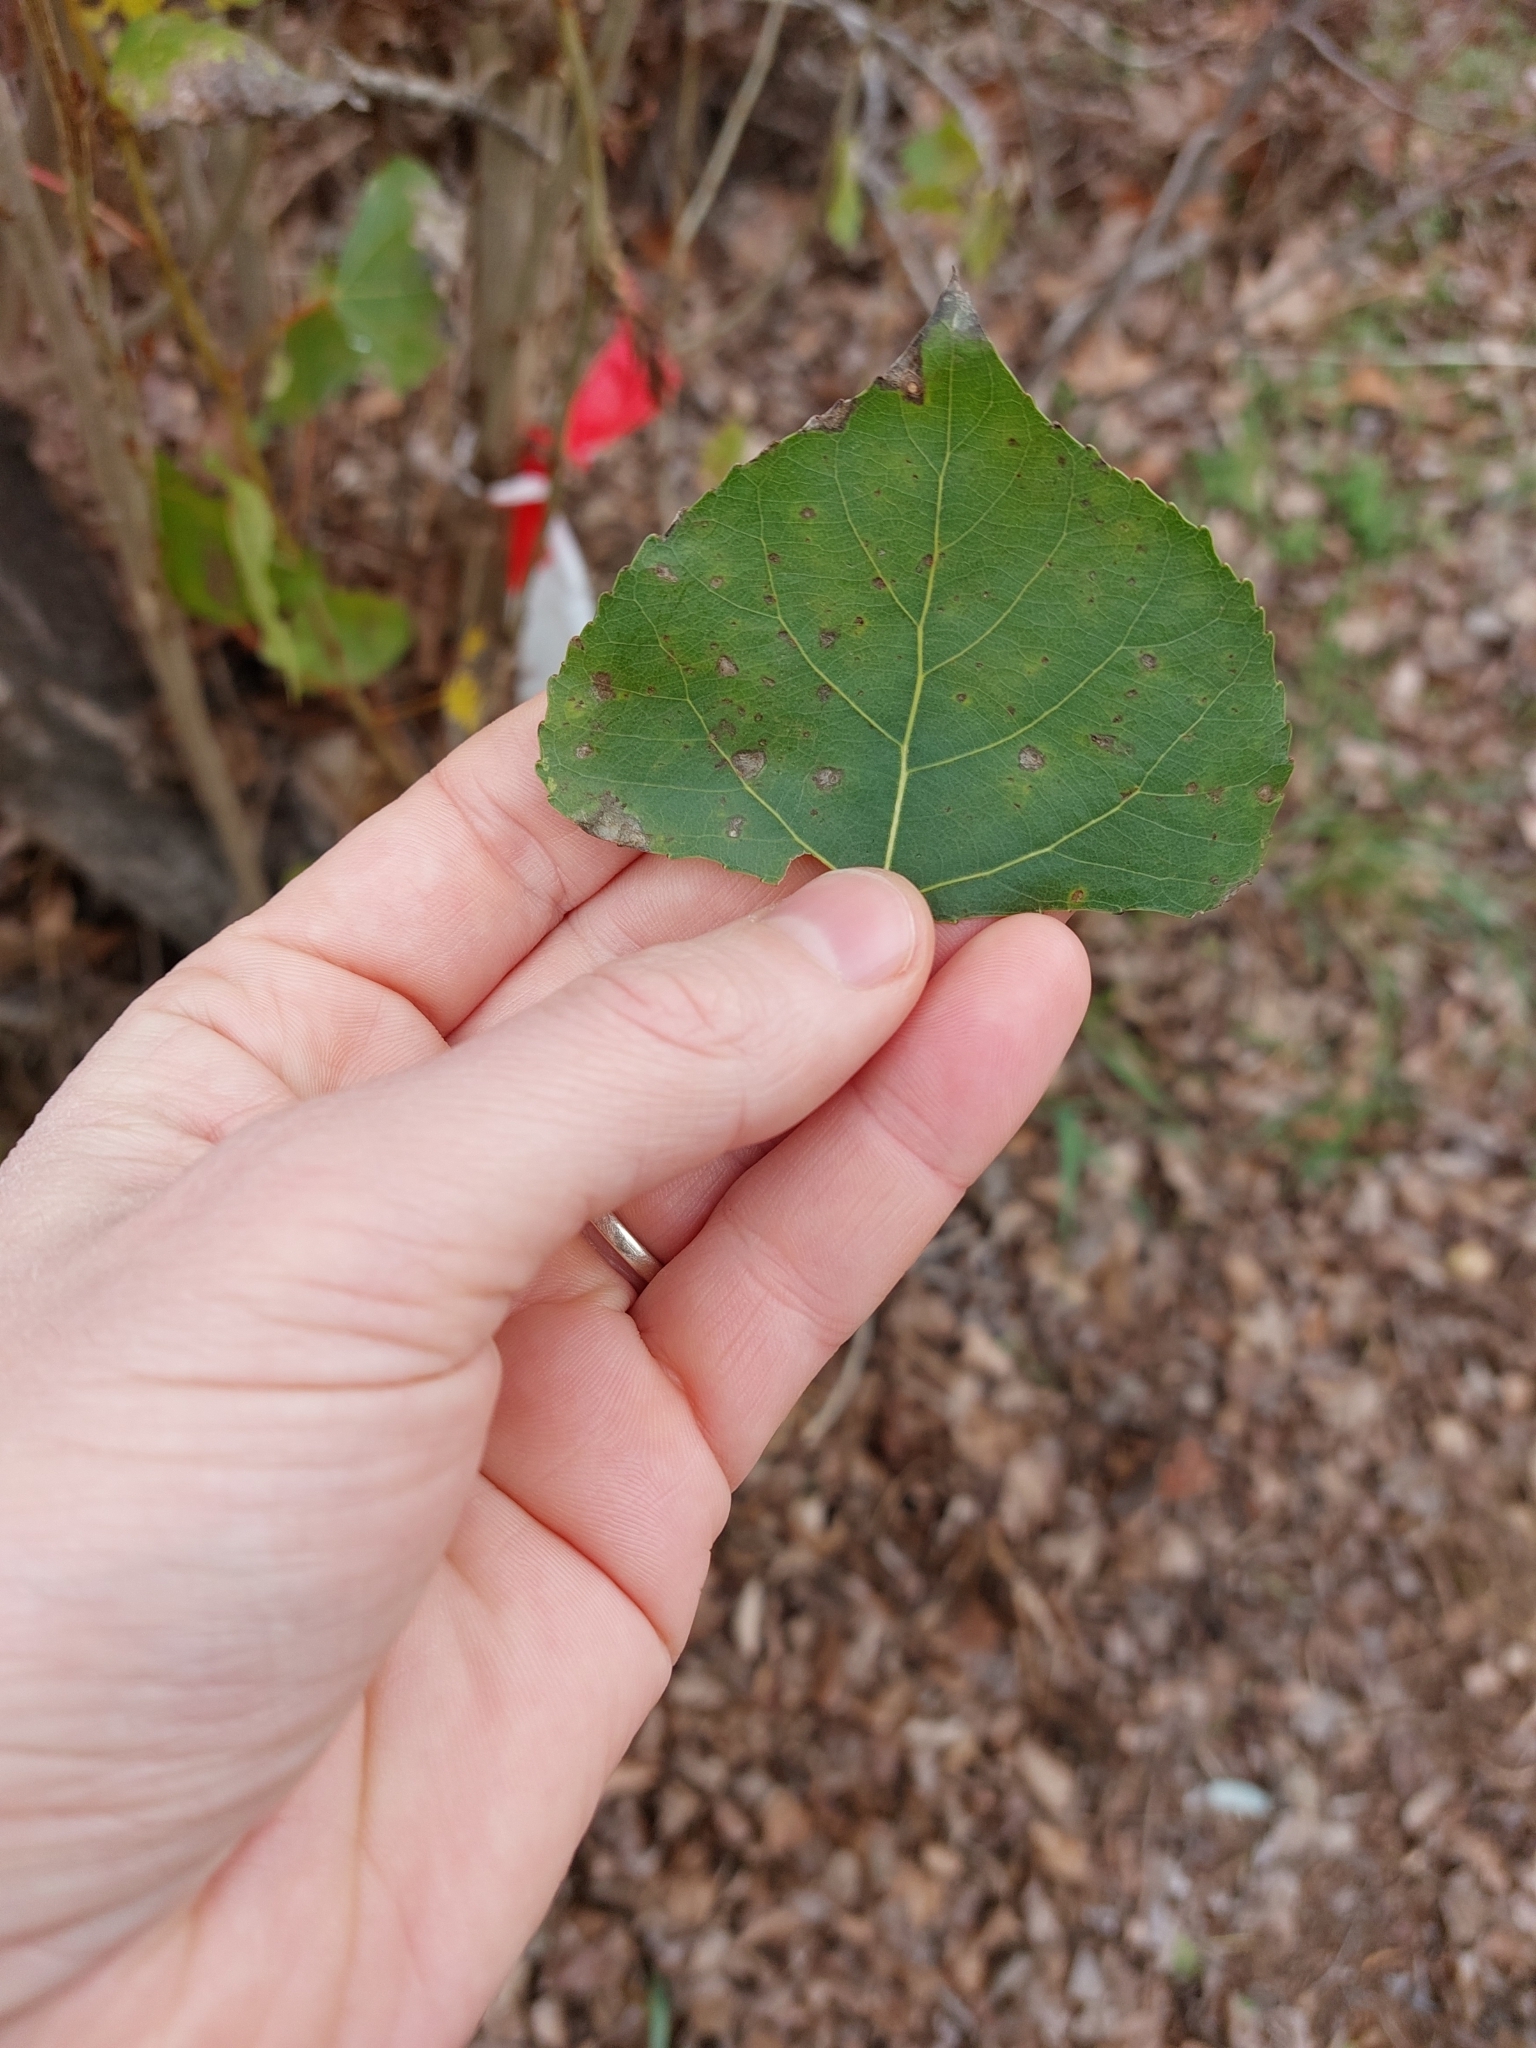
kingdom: Plantae
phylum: Tracheophyta
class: Magnoliopsida
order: Malpighiales
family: Salicaceae
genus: Populus
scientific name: Populus nigra
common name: Black poplar
